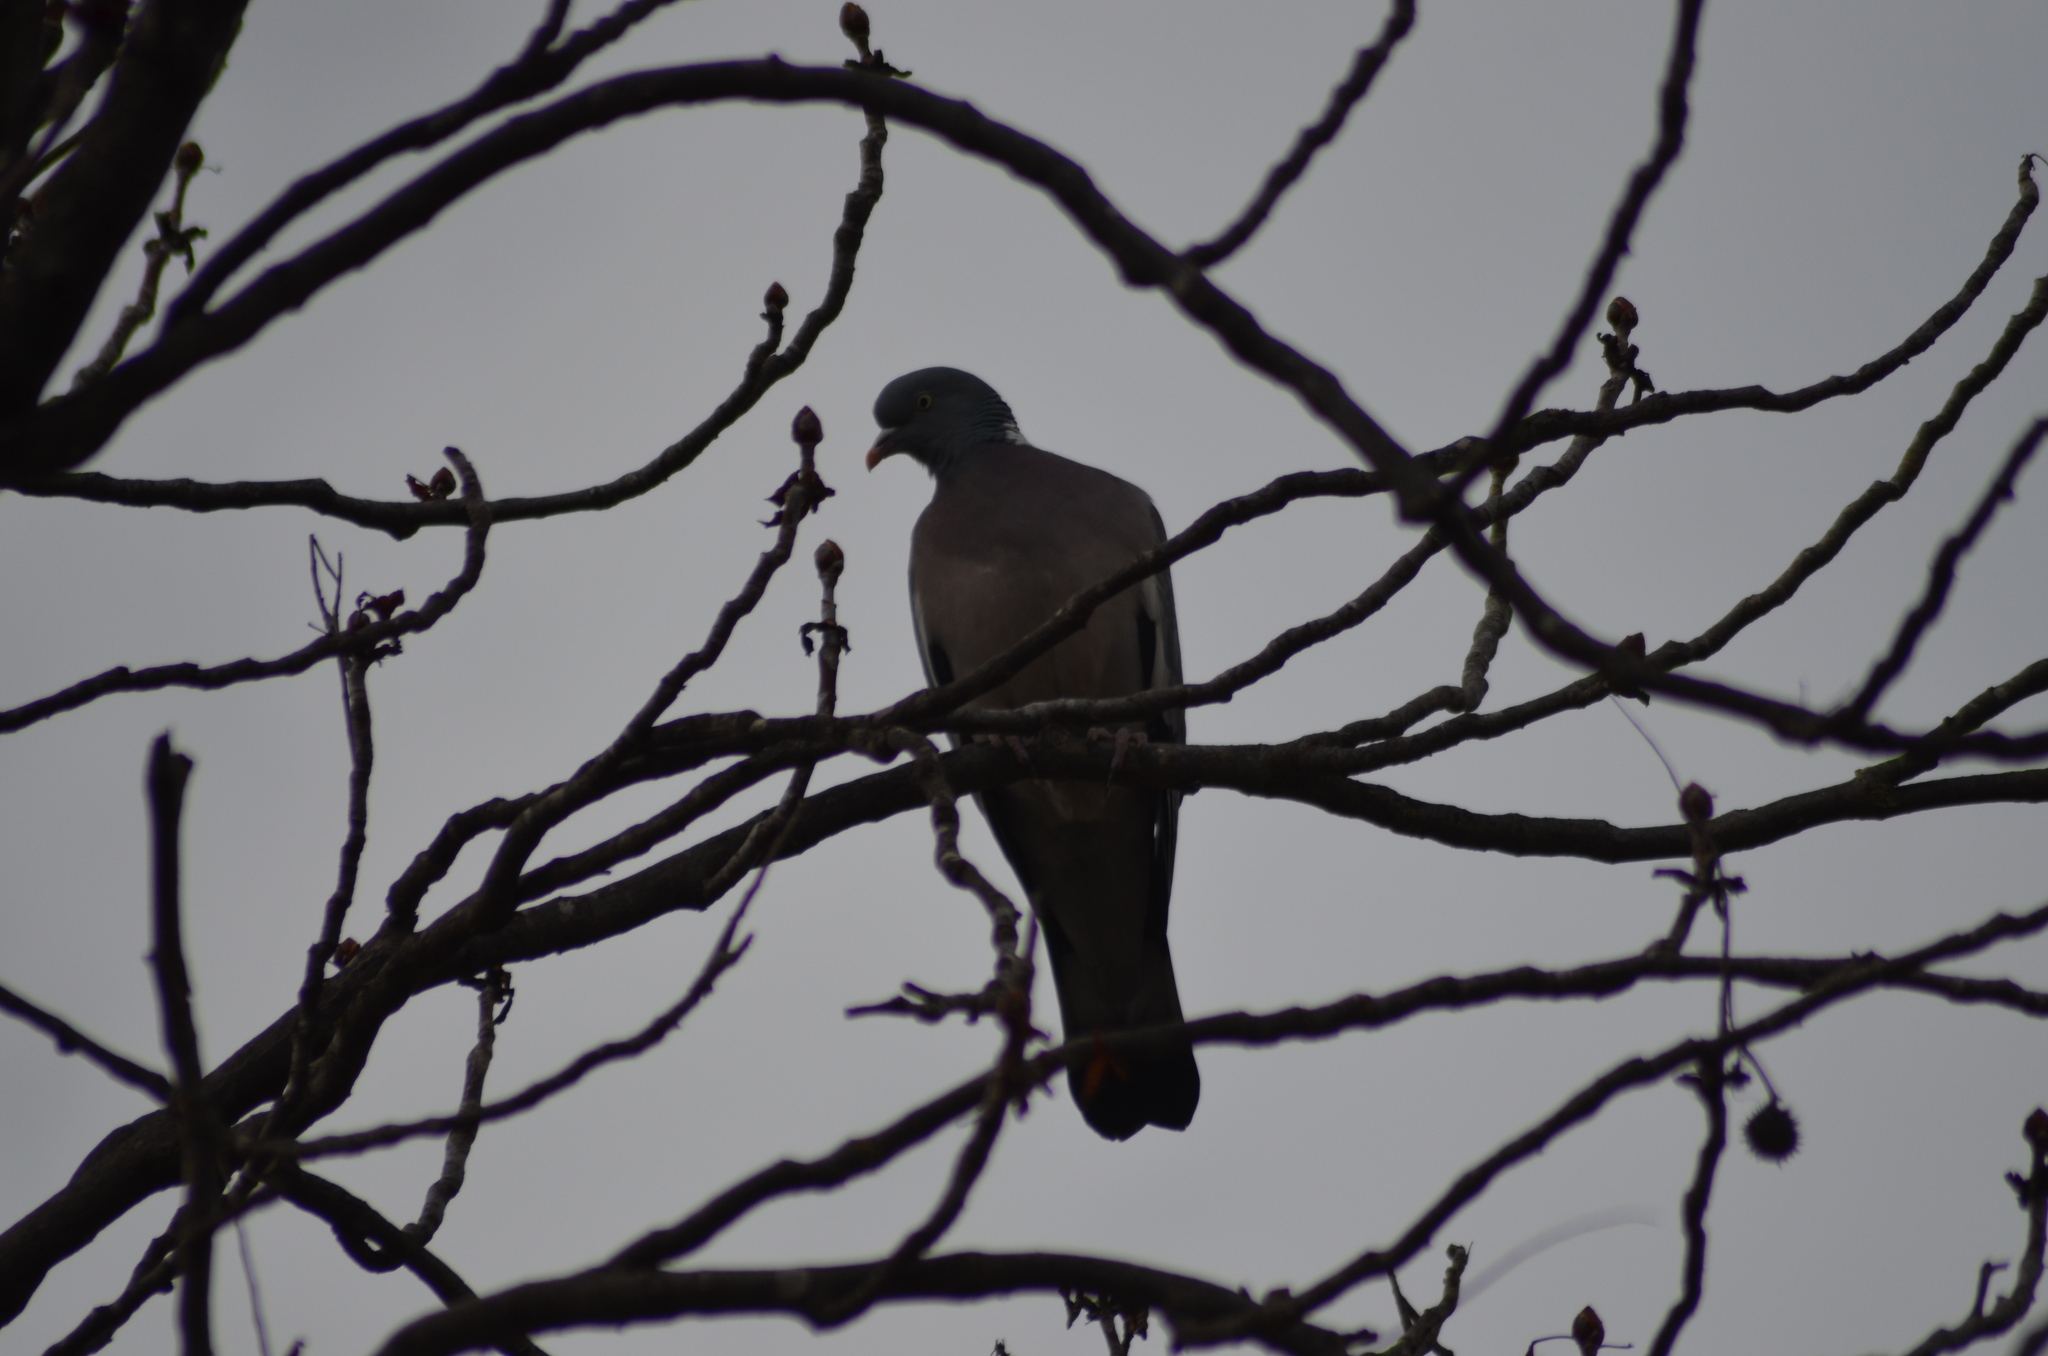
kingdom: Animalia
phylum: Chordata
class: Aves
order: Columbiformes
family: Columbidae
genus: Columba
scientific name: Columba palumbus
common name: Common wood pigeon
